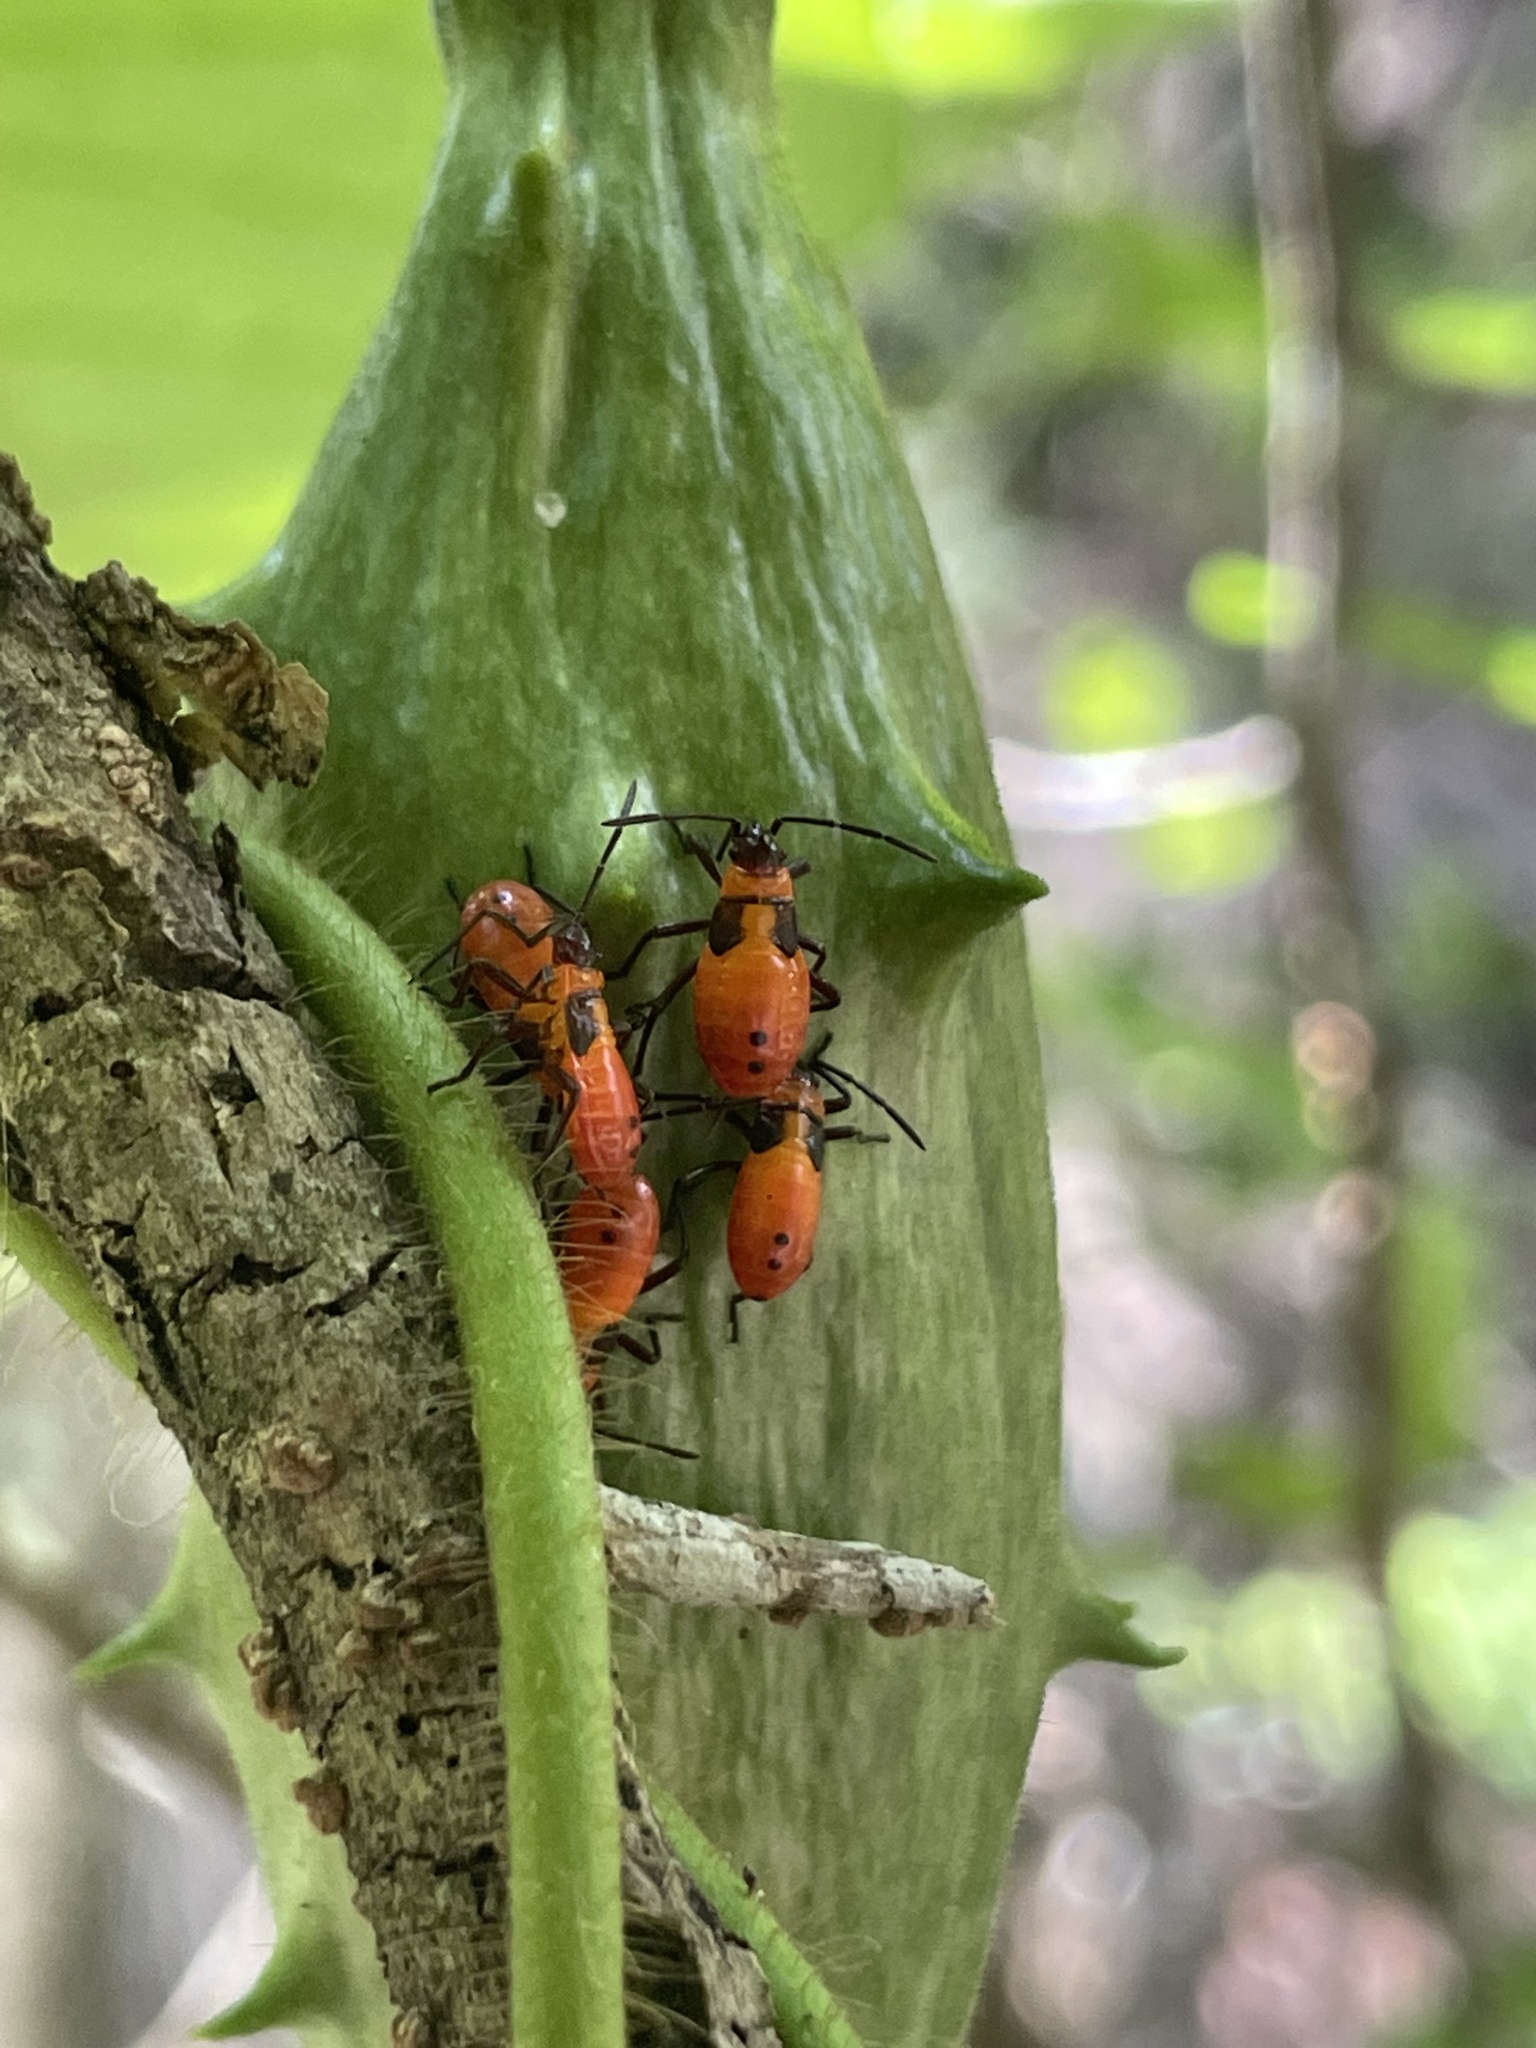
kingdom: Animalia
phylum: Arthropoda
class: Insecta
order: Hemiptera
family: Lygaeidae
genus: Oncopeltus
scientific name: Oncopeltus fasciatus
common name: Large milkweed bug
